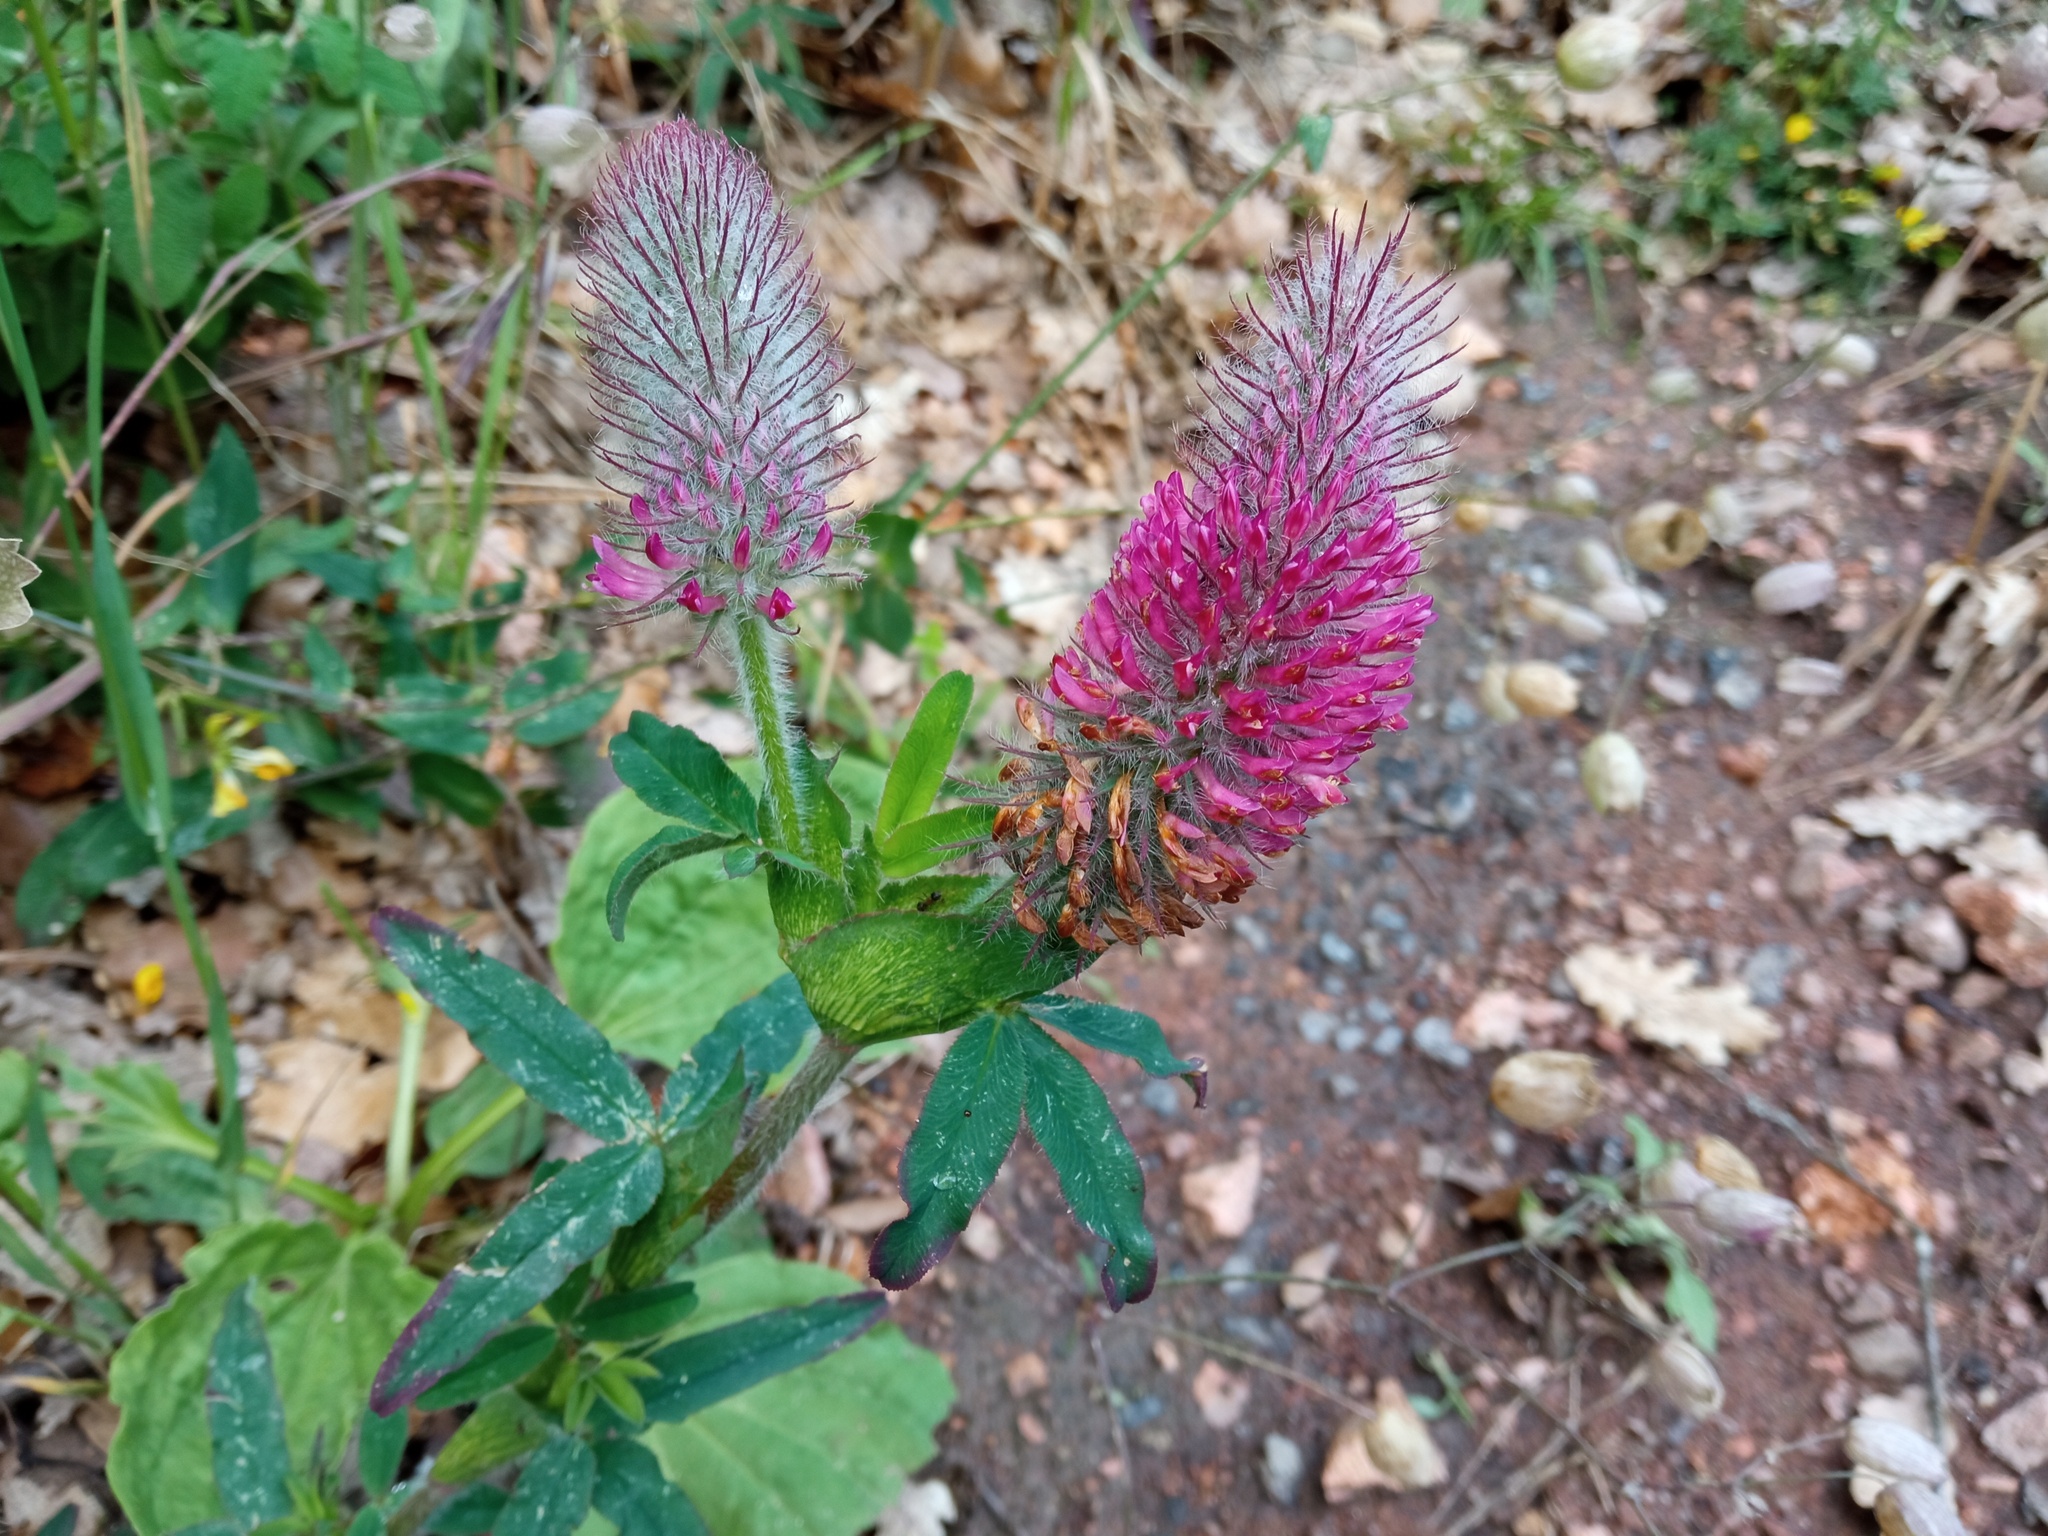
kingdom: Plantae
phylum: Tracheophyta
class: Magnoliopsida
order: Fabales
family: Fabaceae
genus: Trifolium
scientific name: Trifolium rubens
